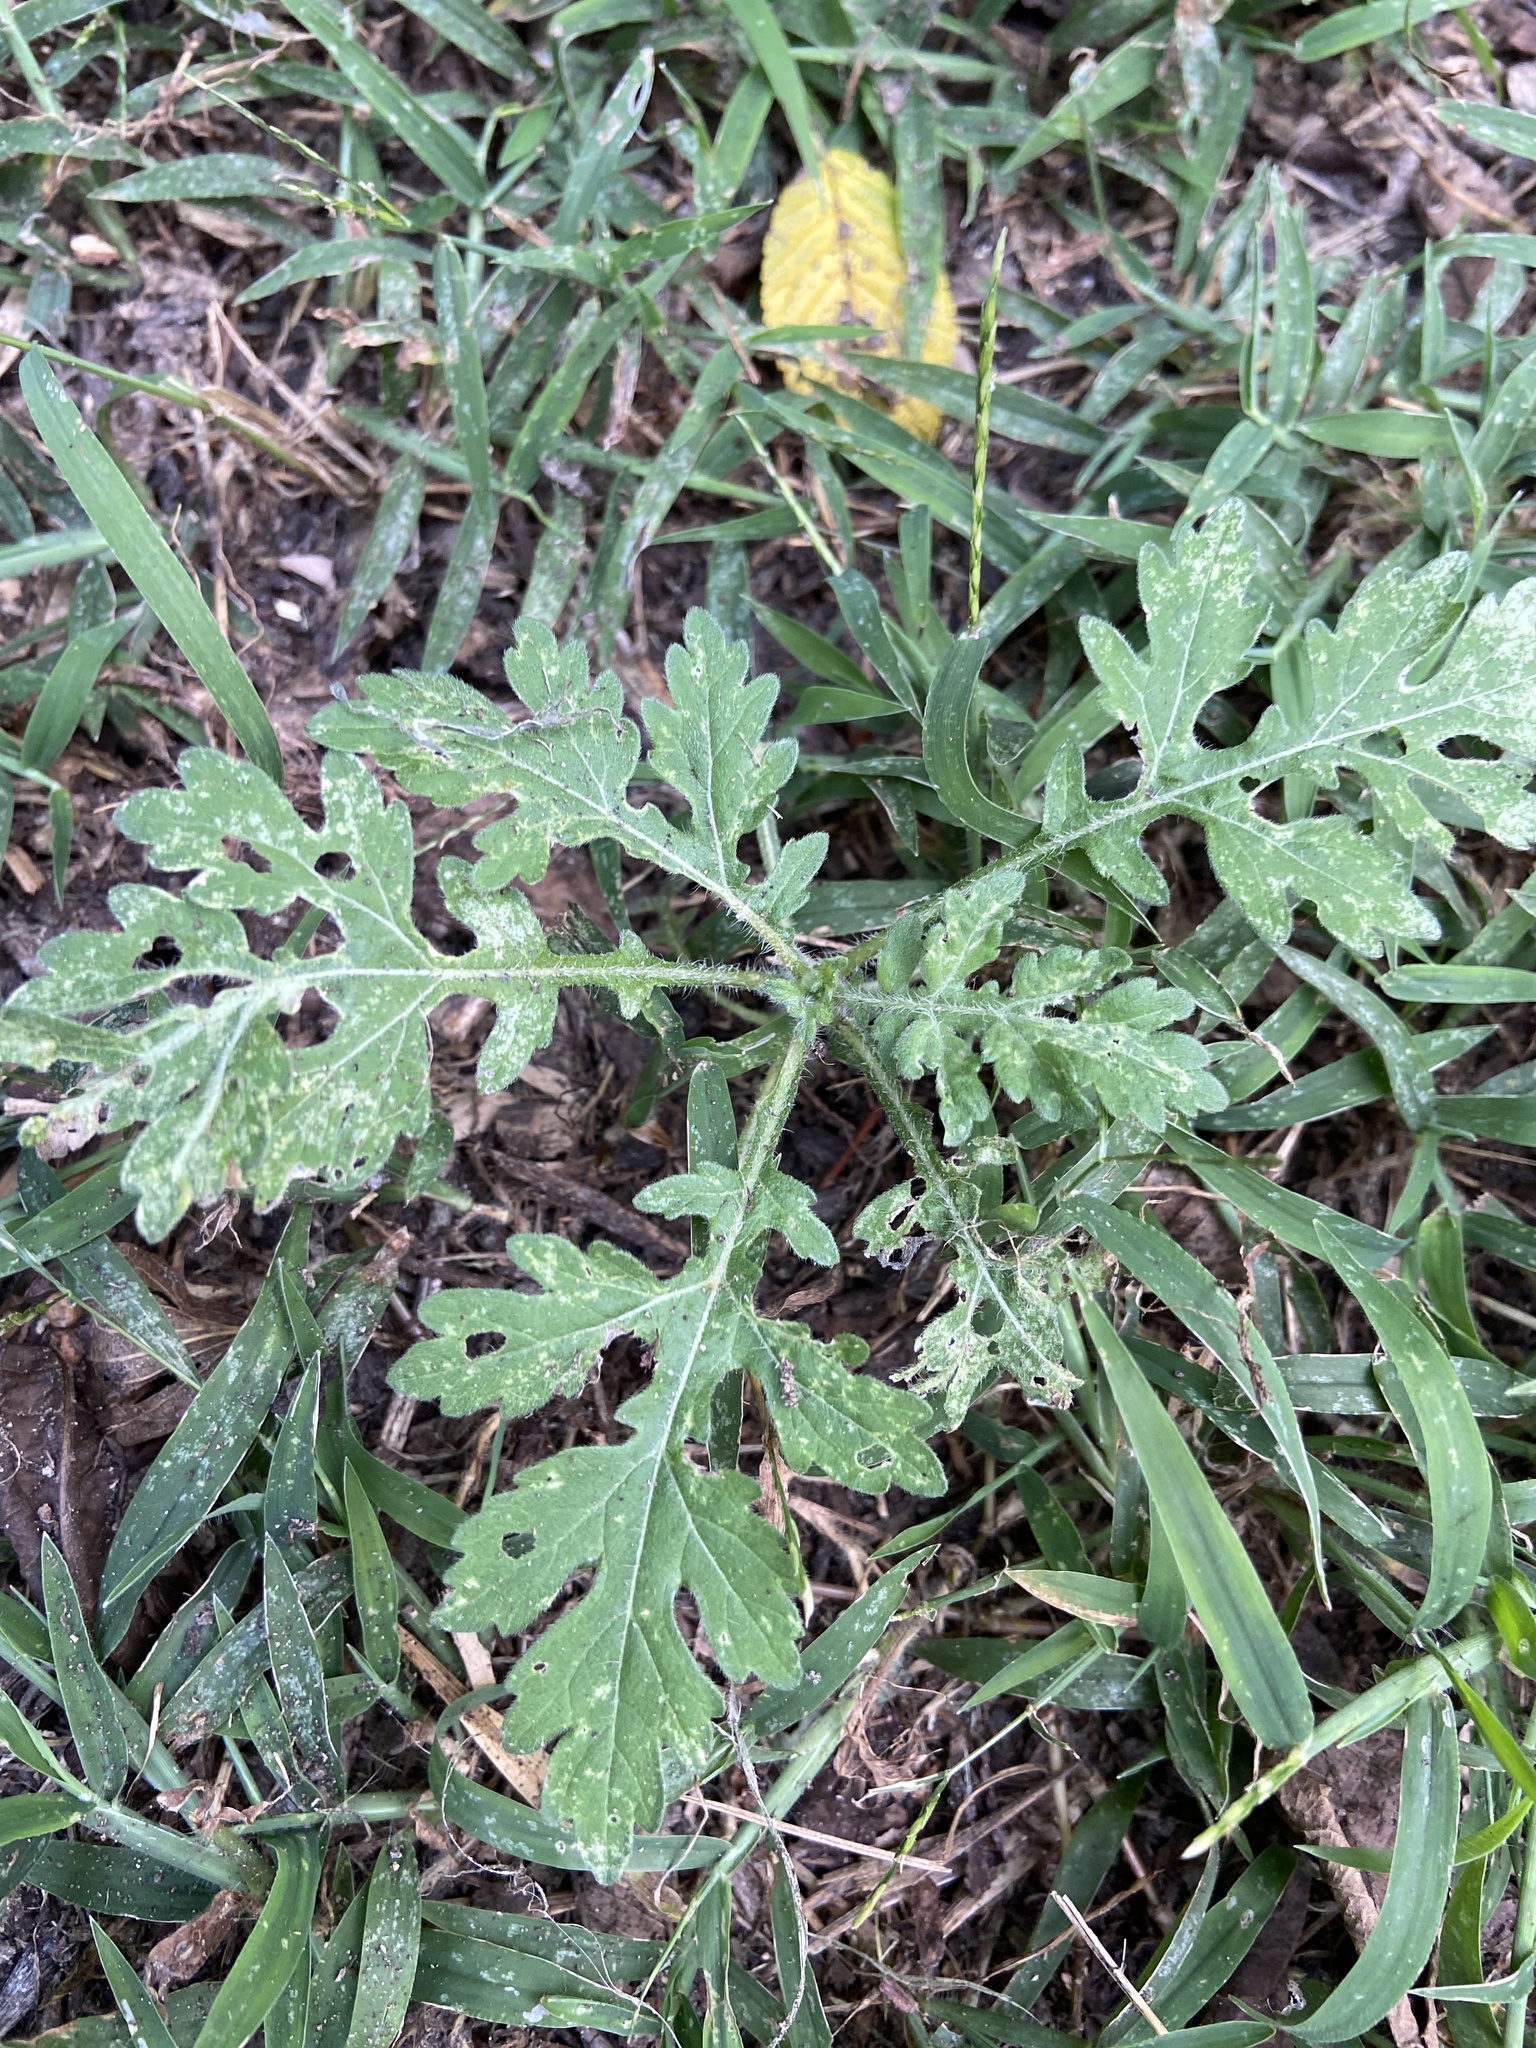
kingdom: Plantae
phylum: Tracheophyta
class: Magnoliopsida
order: Asterales
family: Asteraceae
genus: Parthenium
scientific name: Parthenium hysterophorus
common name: Santa maria feverfew
